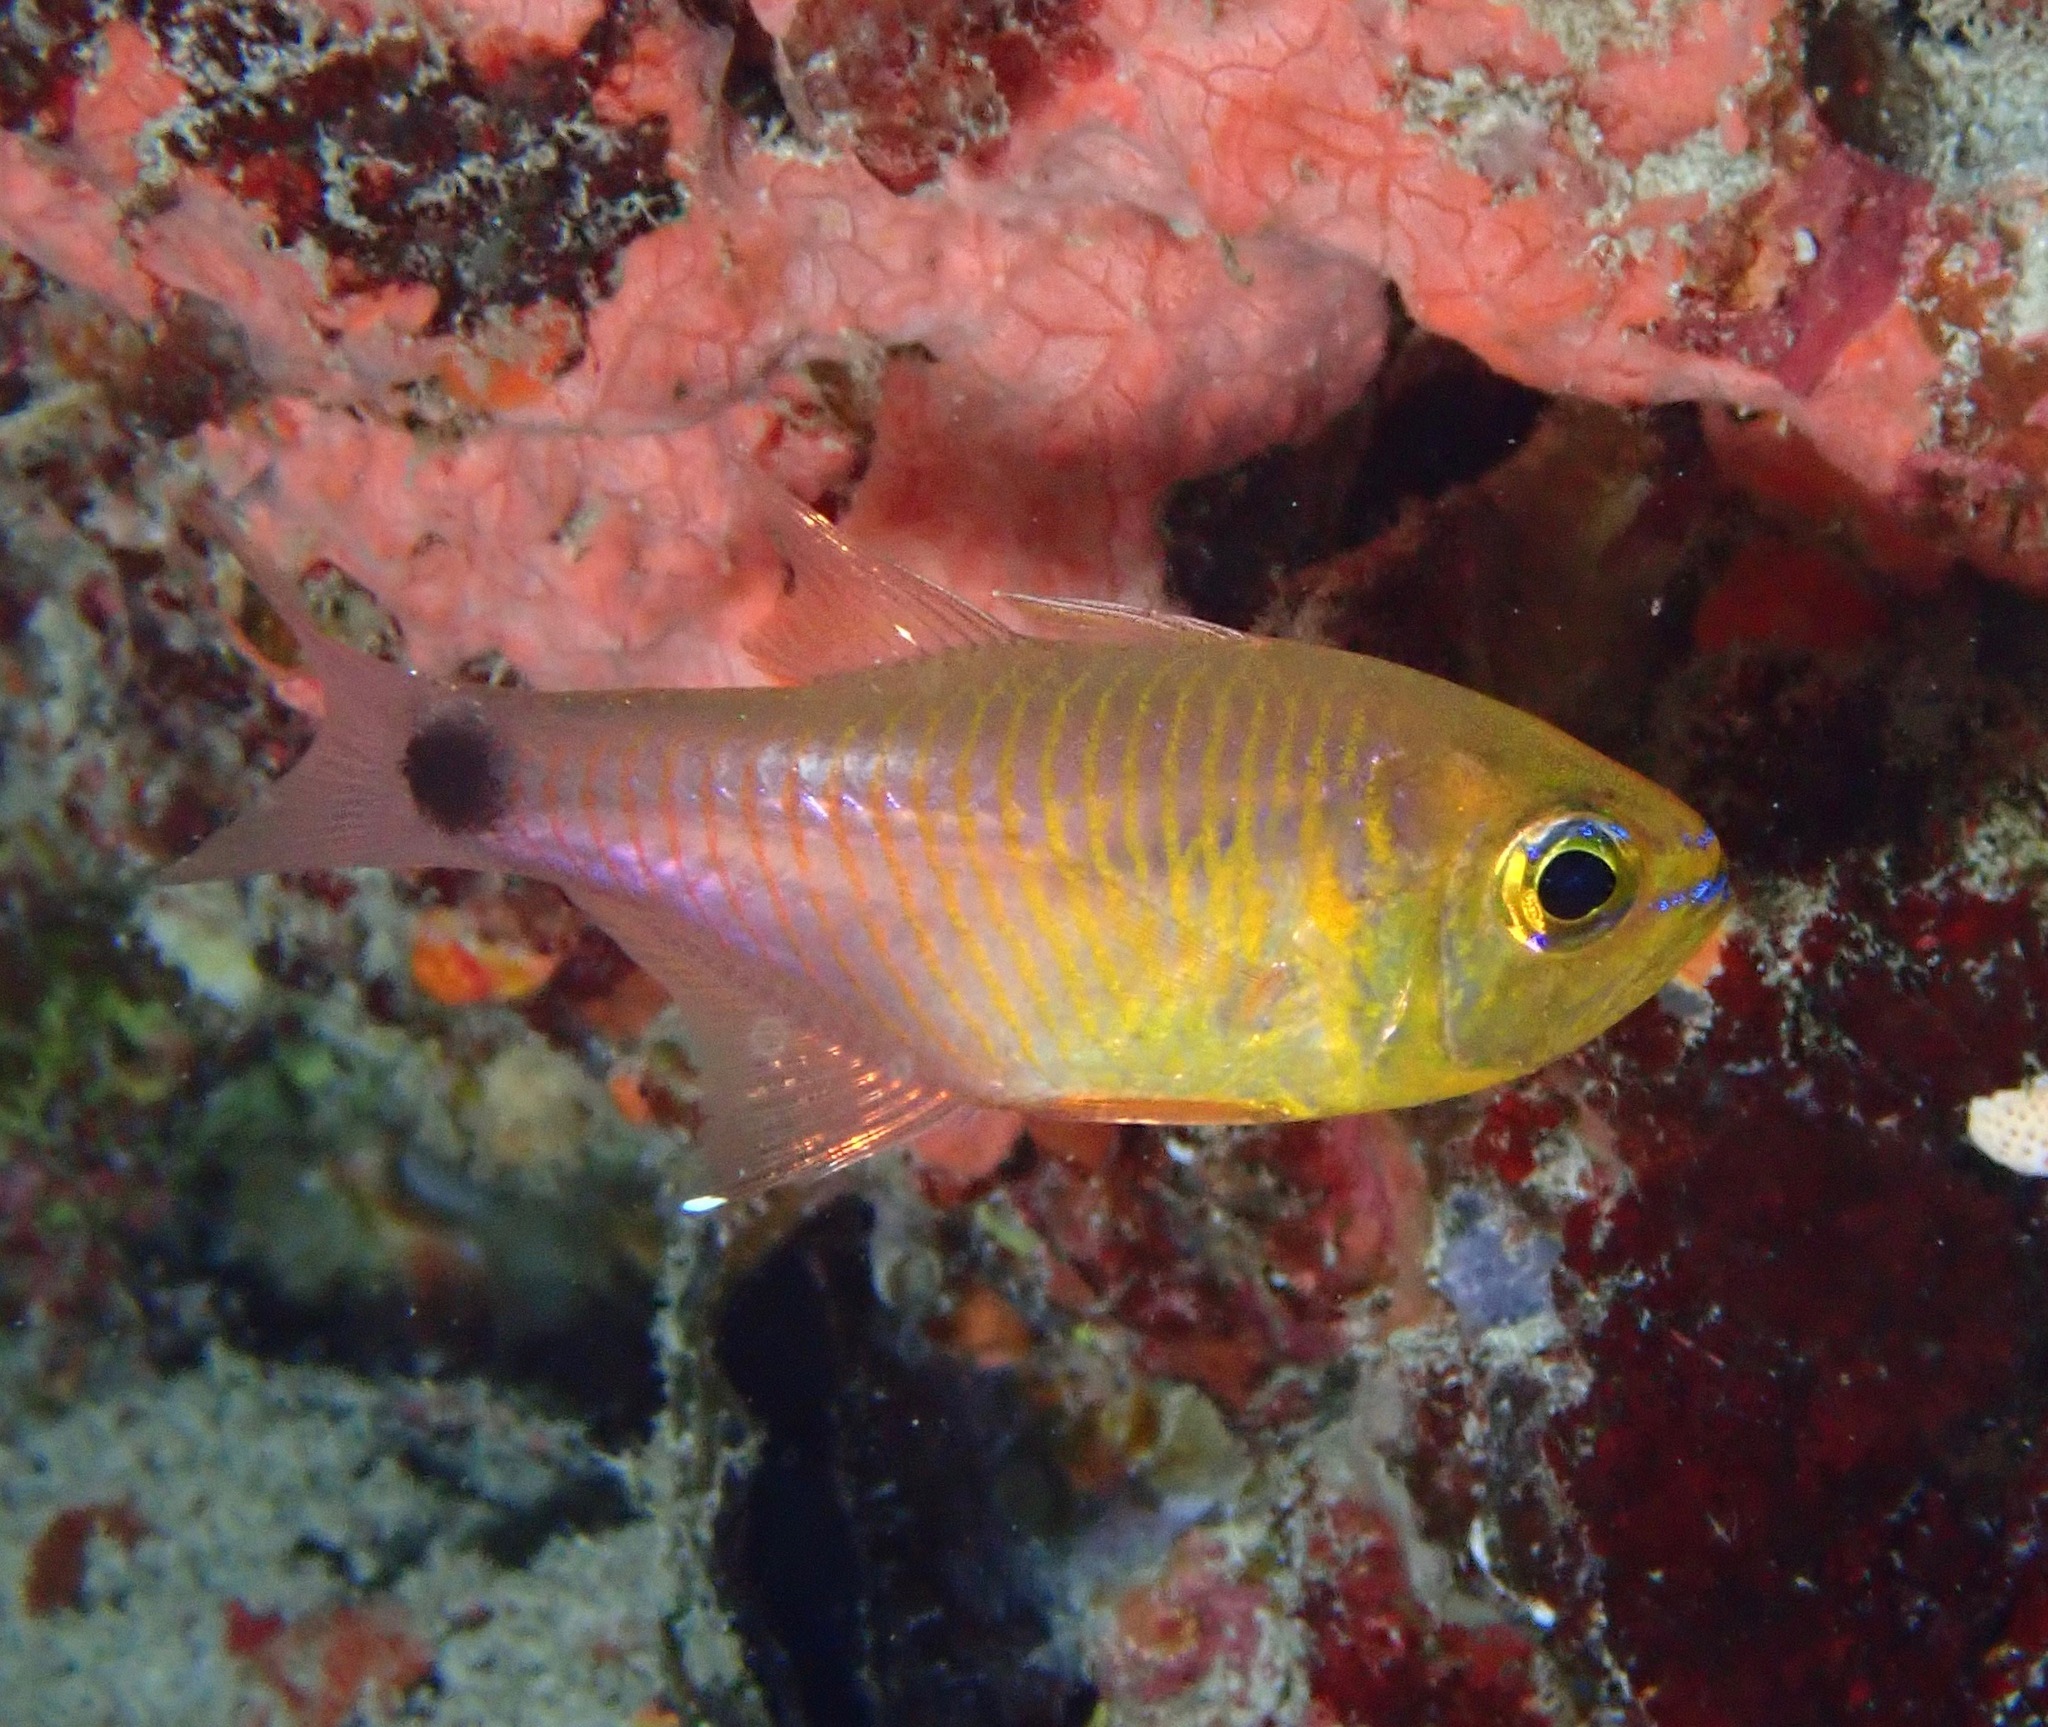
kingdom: Animalia
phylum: Chordata
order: Perciformes
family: Apogonidae
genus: Taeniamia
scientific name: Taeniamia fucata
